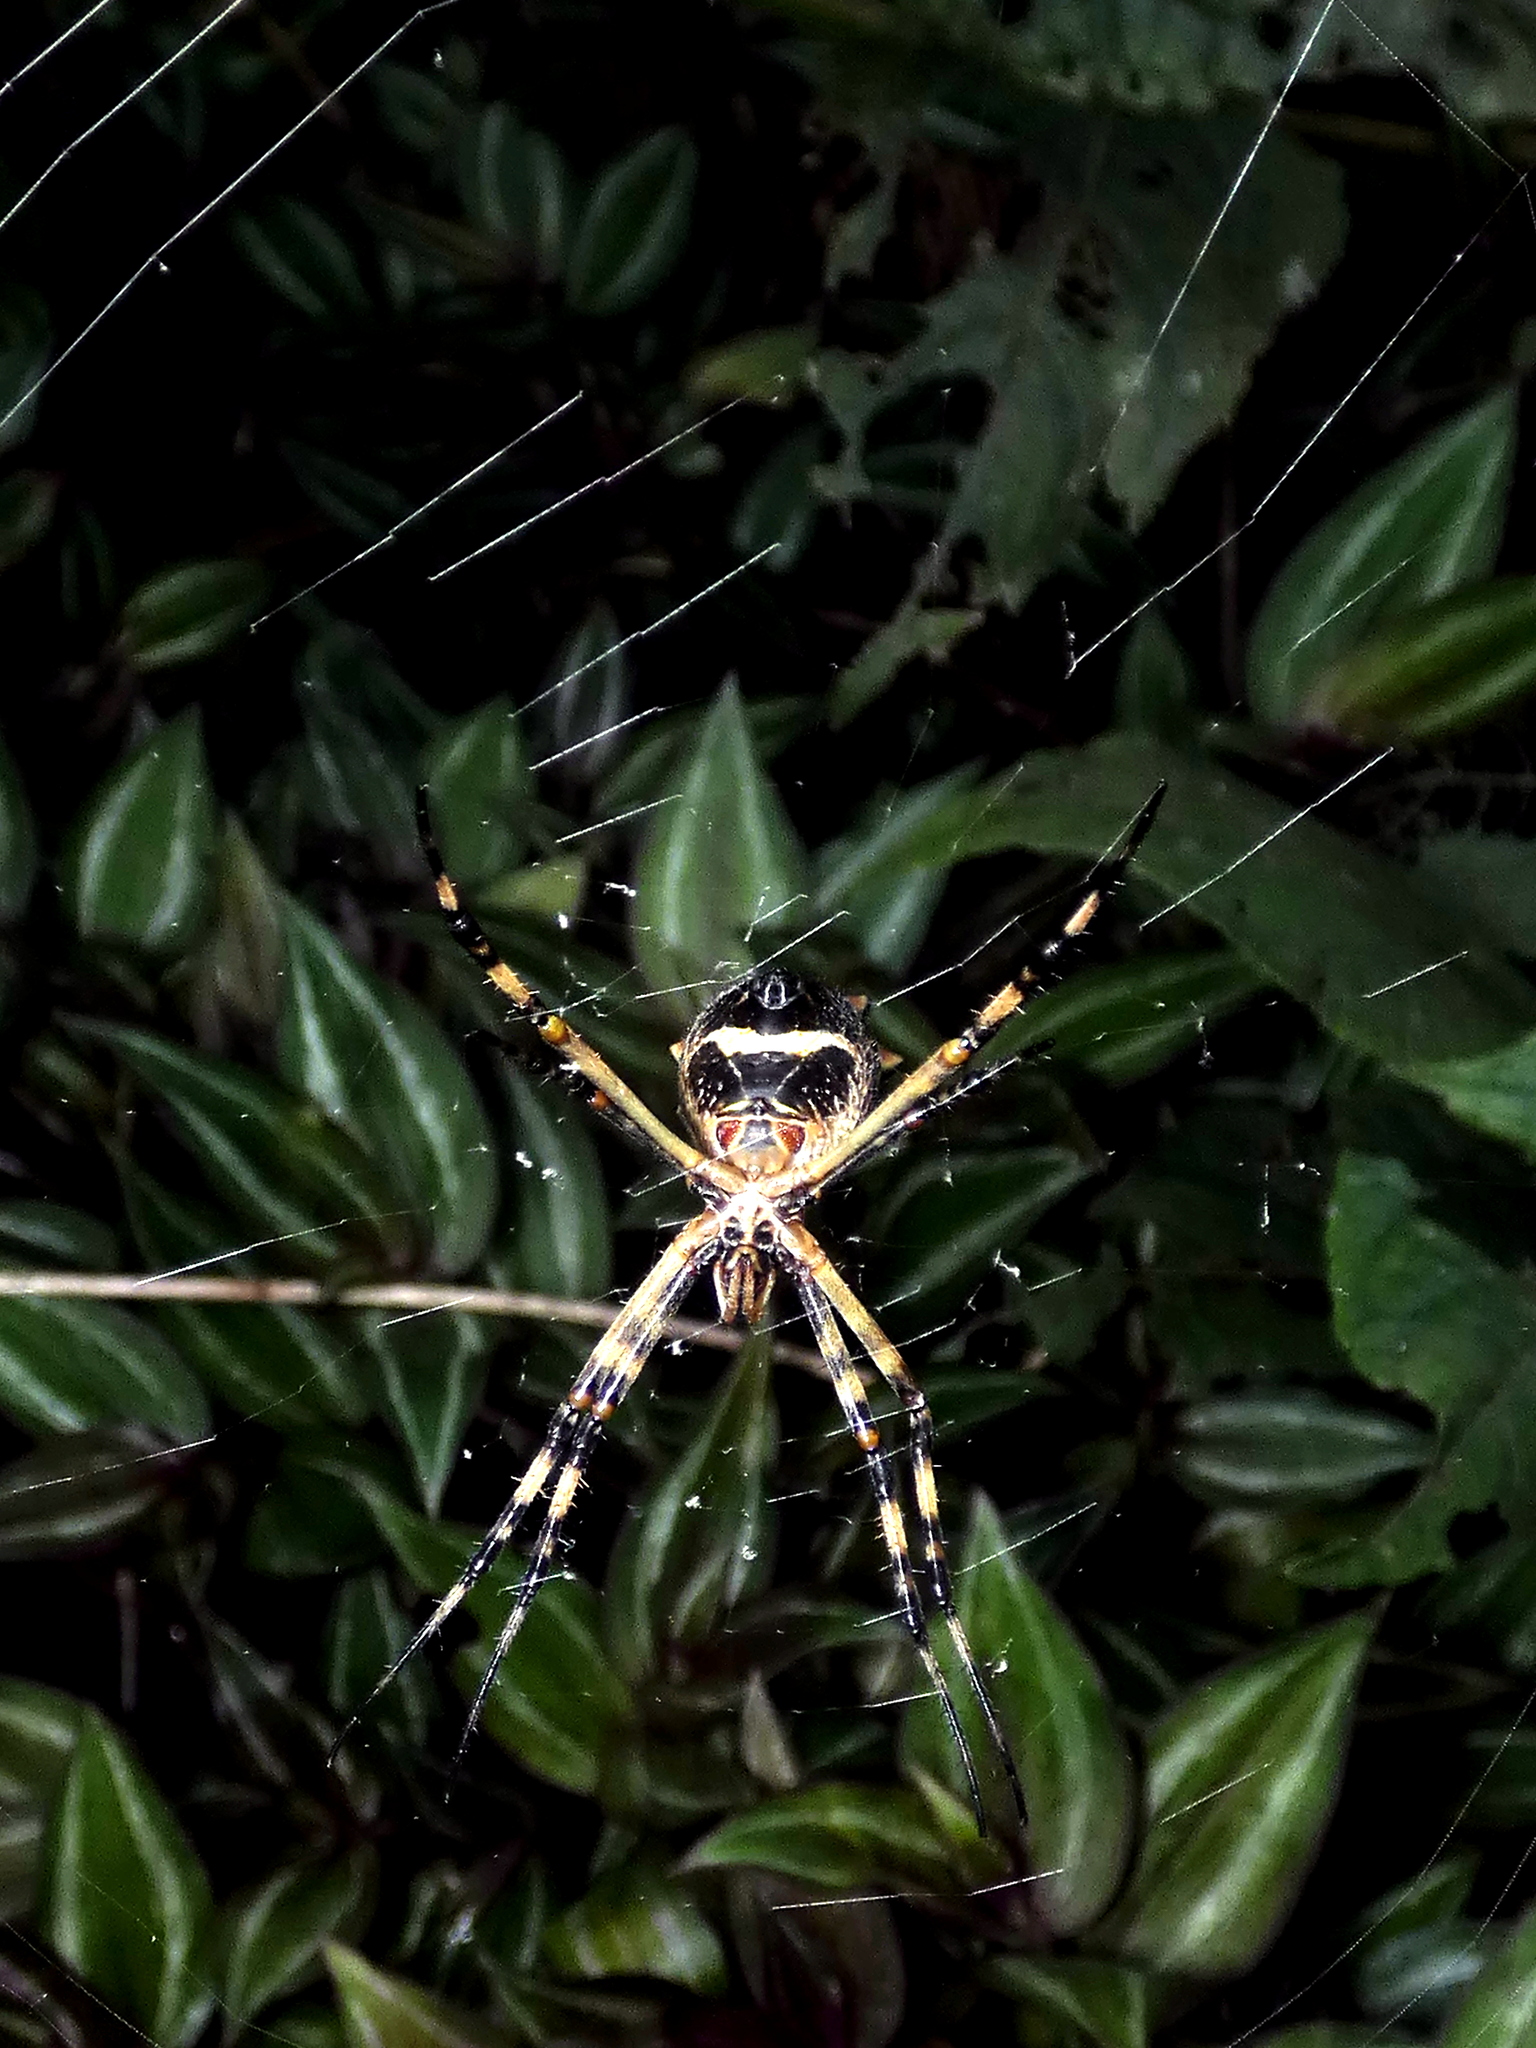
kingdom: Animalia
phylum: Arthropoda
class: Arachnida
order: Araneae
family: Araneidae
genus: Argiope
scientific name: Argiope argentata
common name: Orb weavers
